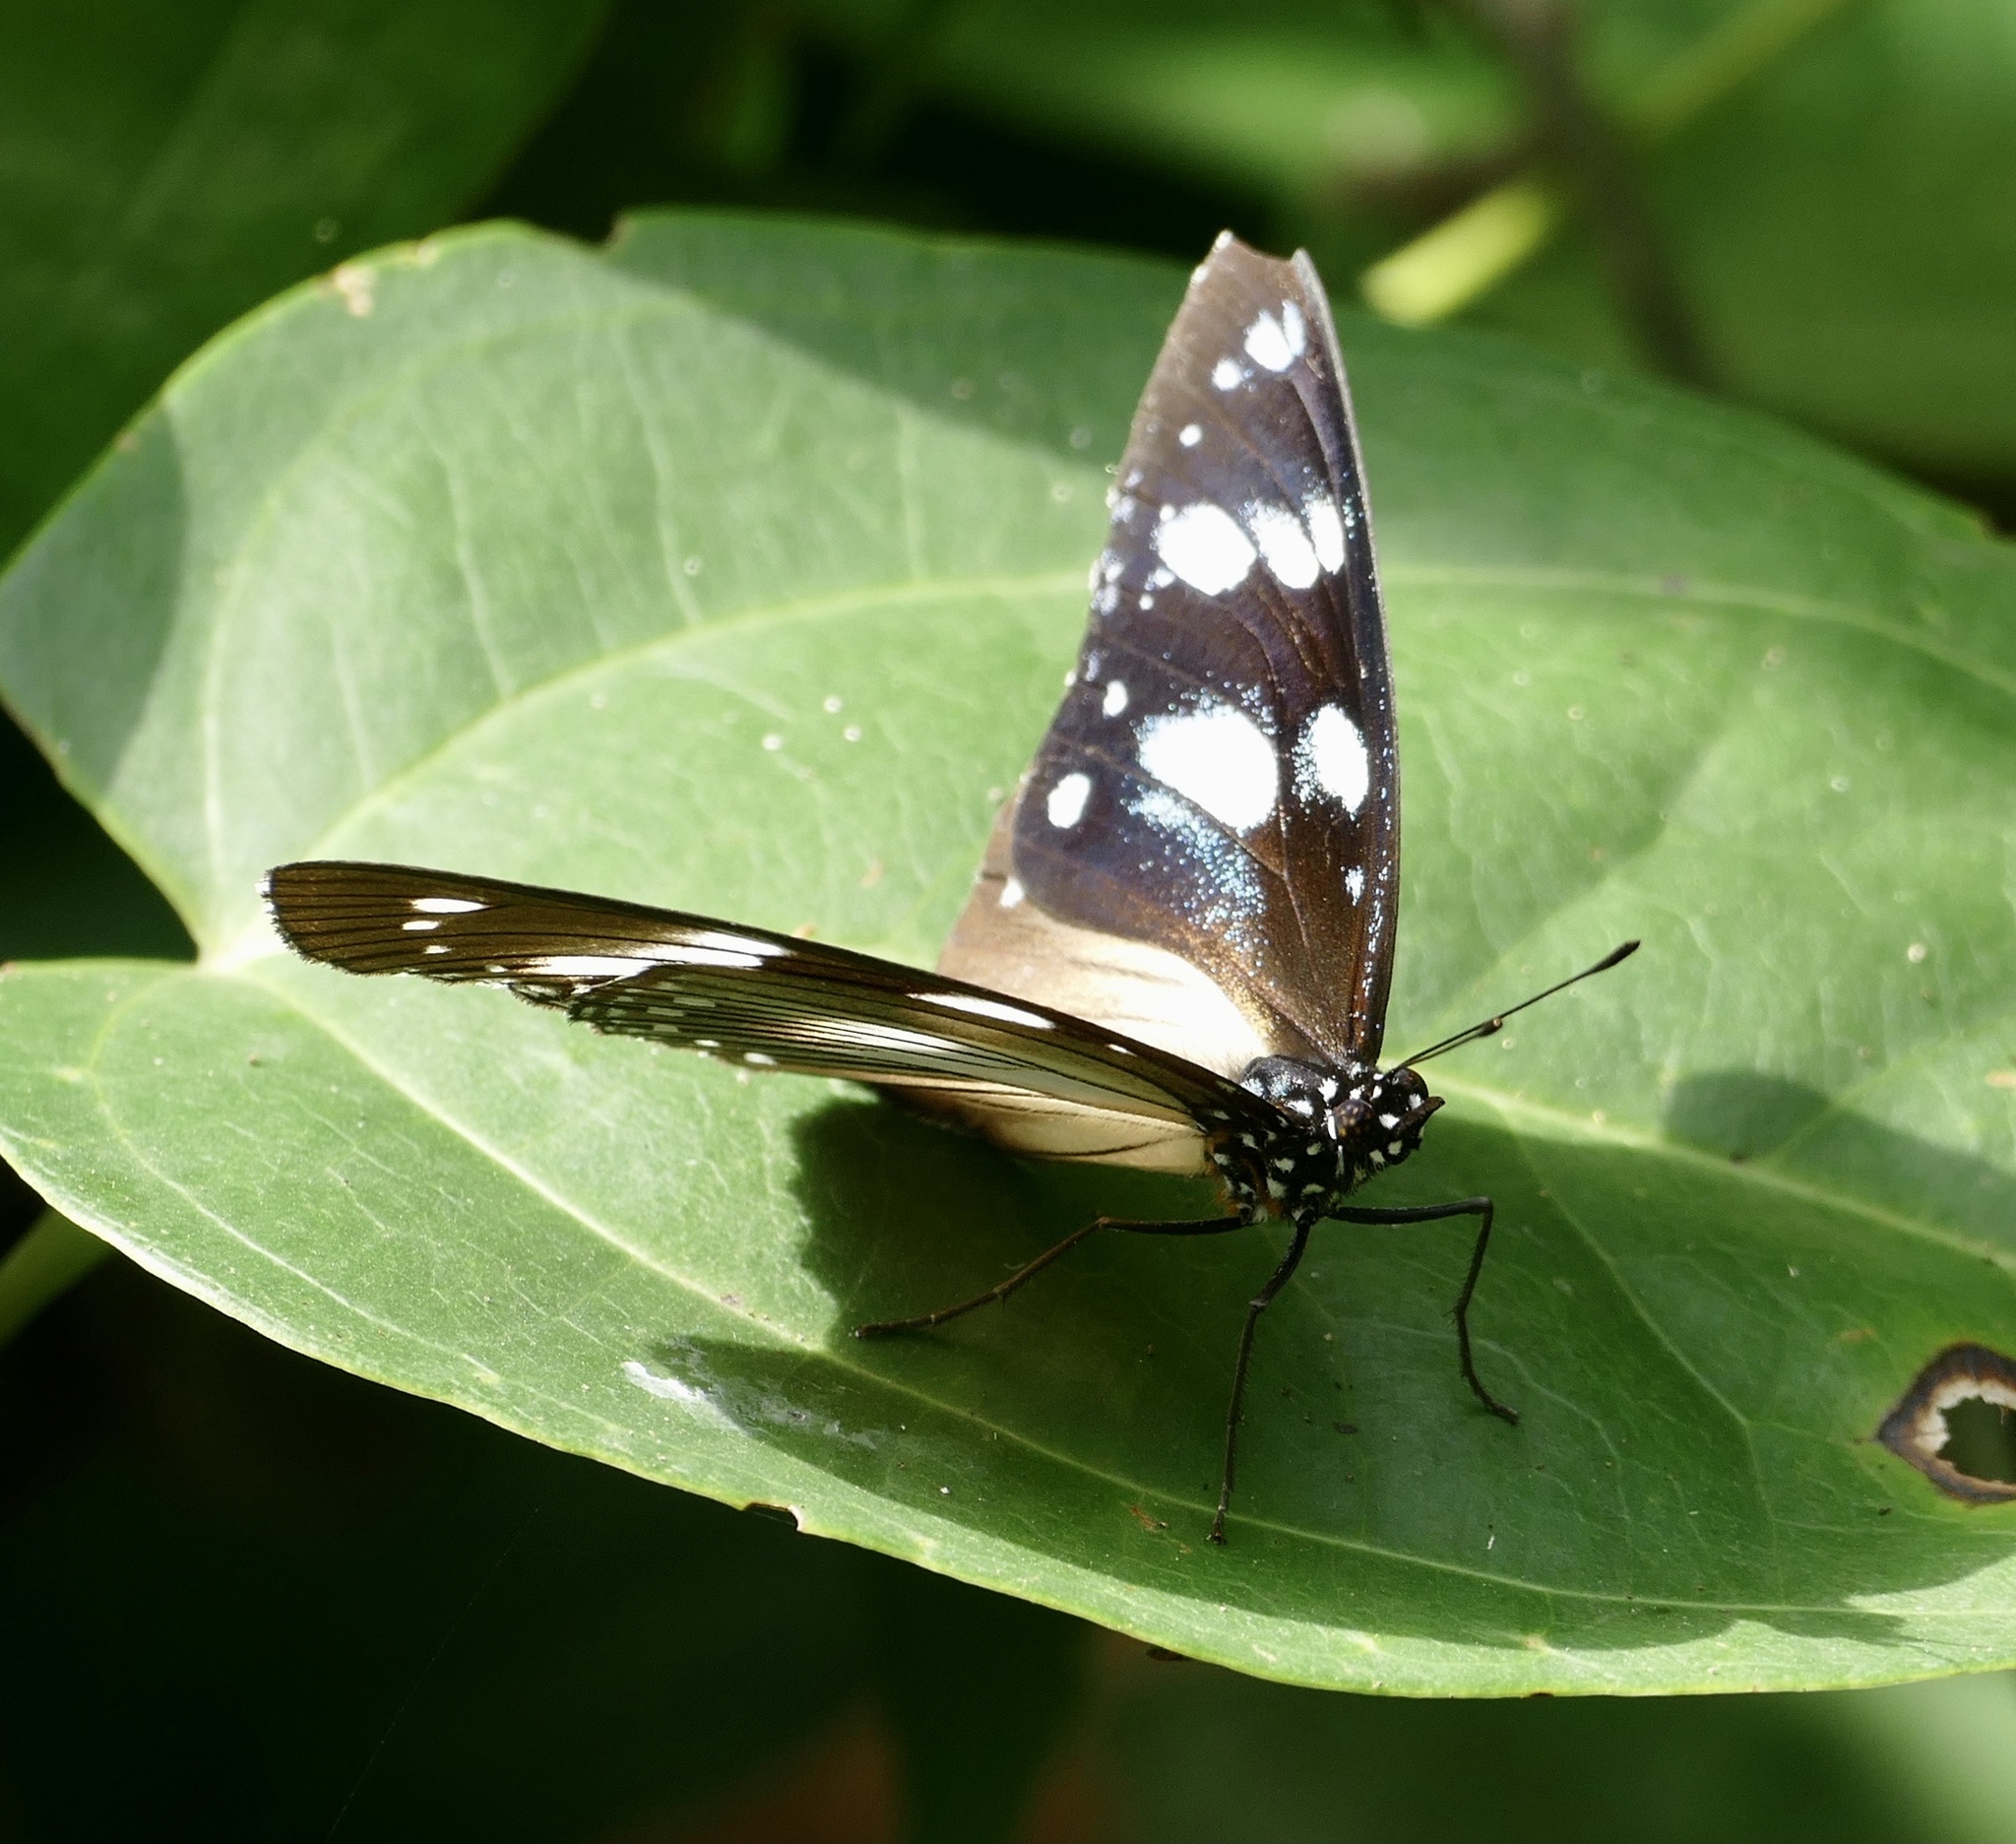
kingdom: Animalia
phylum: Arthropoda
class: Insecta
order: Lepidoptera
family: Nymphalidae
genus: Hypolimnas
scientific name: Hypolimnas dubius
